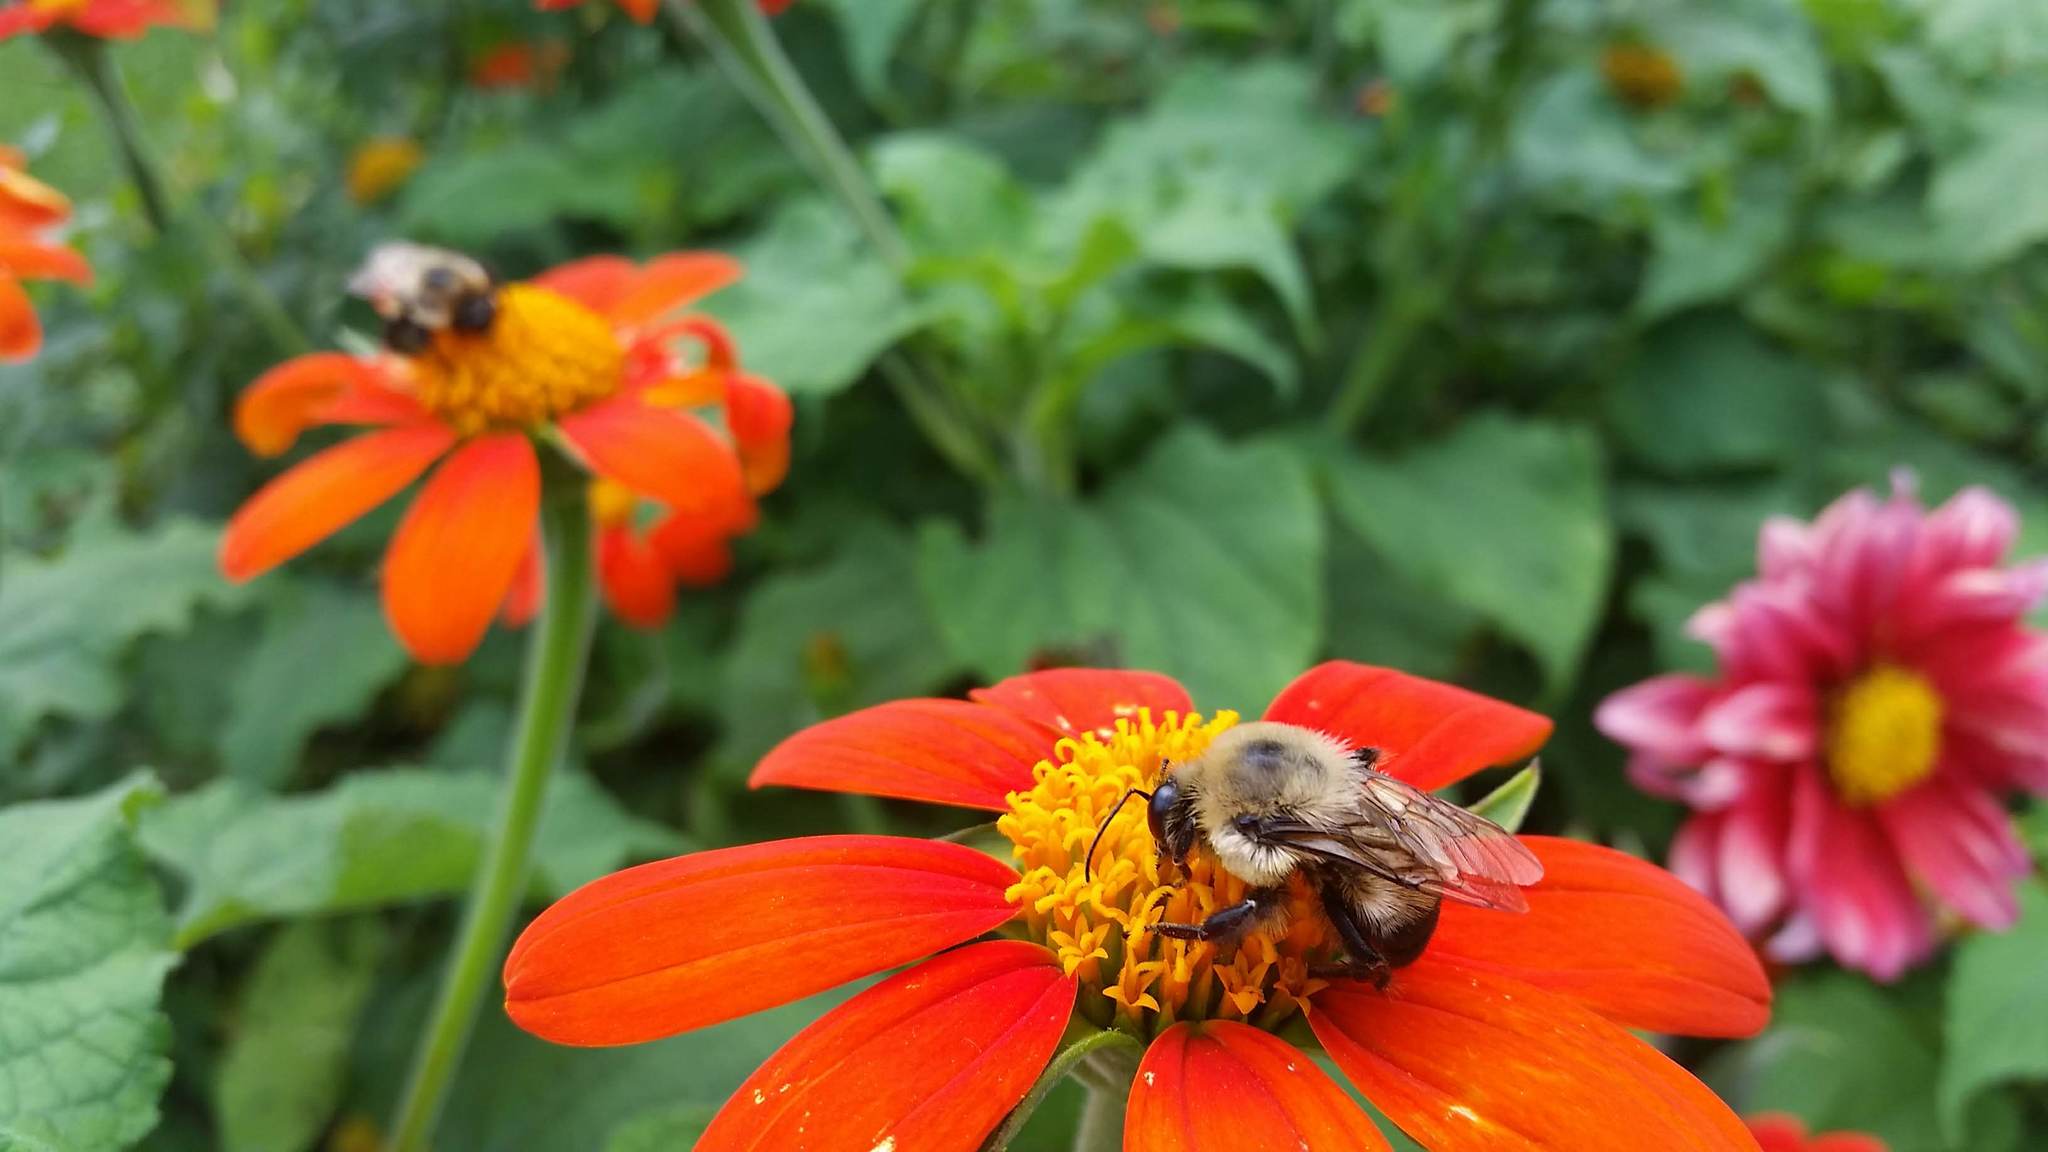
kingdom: Animalia
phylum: Arthropoda
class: Insecta
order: Hymenoptera
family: Apidae
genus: Bombus
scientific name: Bombus griseocollis
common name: Brown-belted bumble bee
